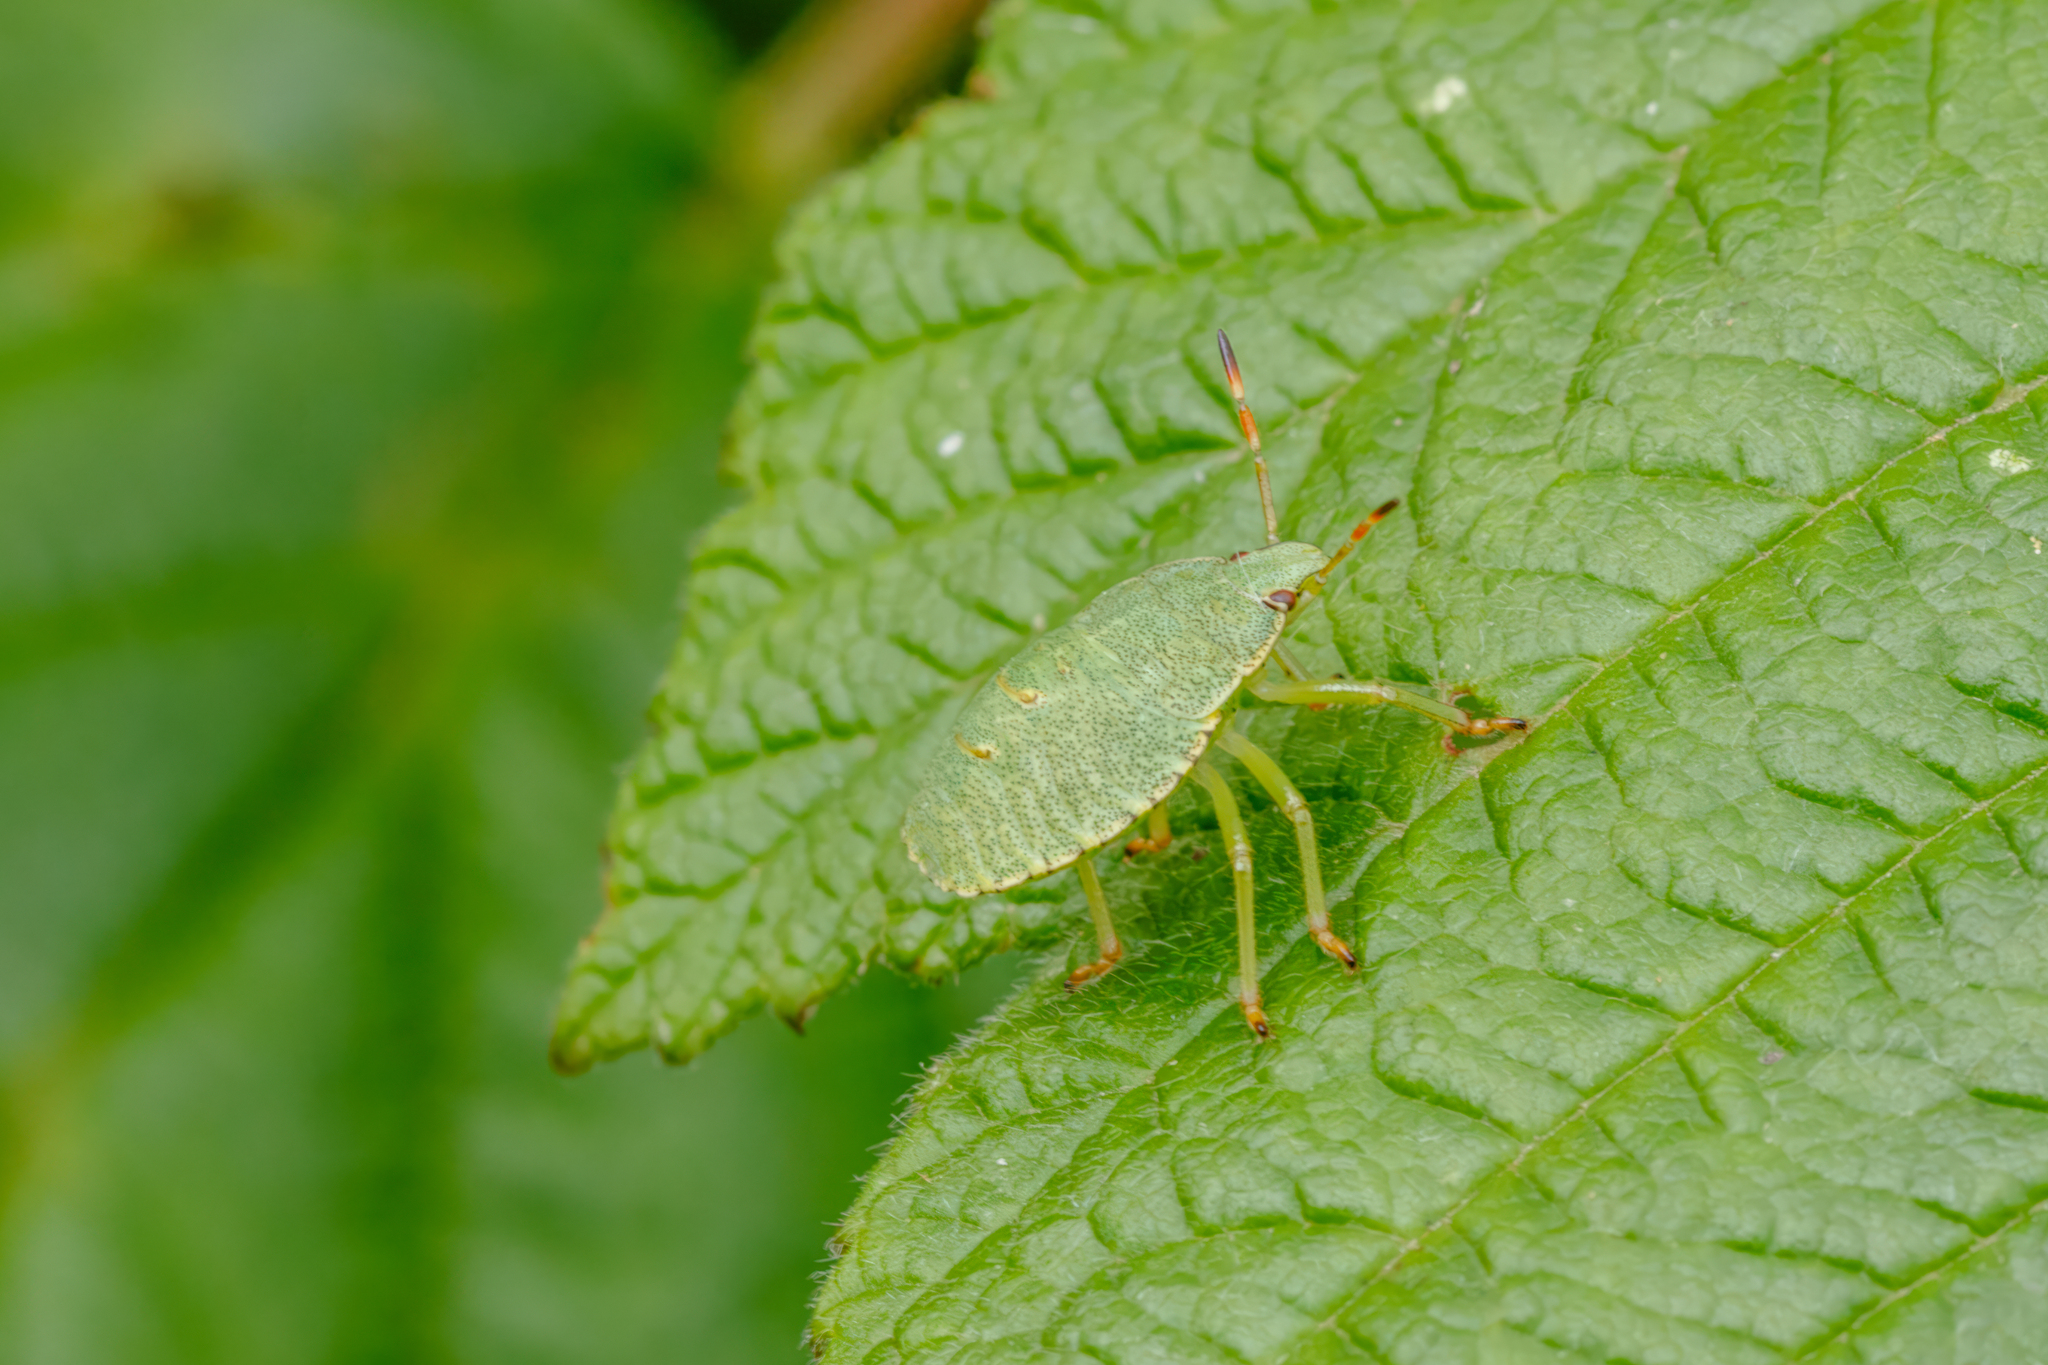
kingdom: Animalia
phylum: Arthropoda
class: Insecta
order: Hemiptera
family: Pentatomidae
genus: Palomena
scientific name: Palomena prasina
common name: Green shieldbug
